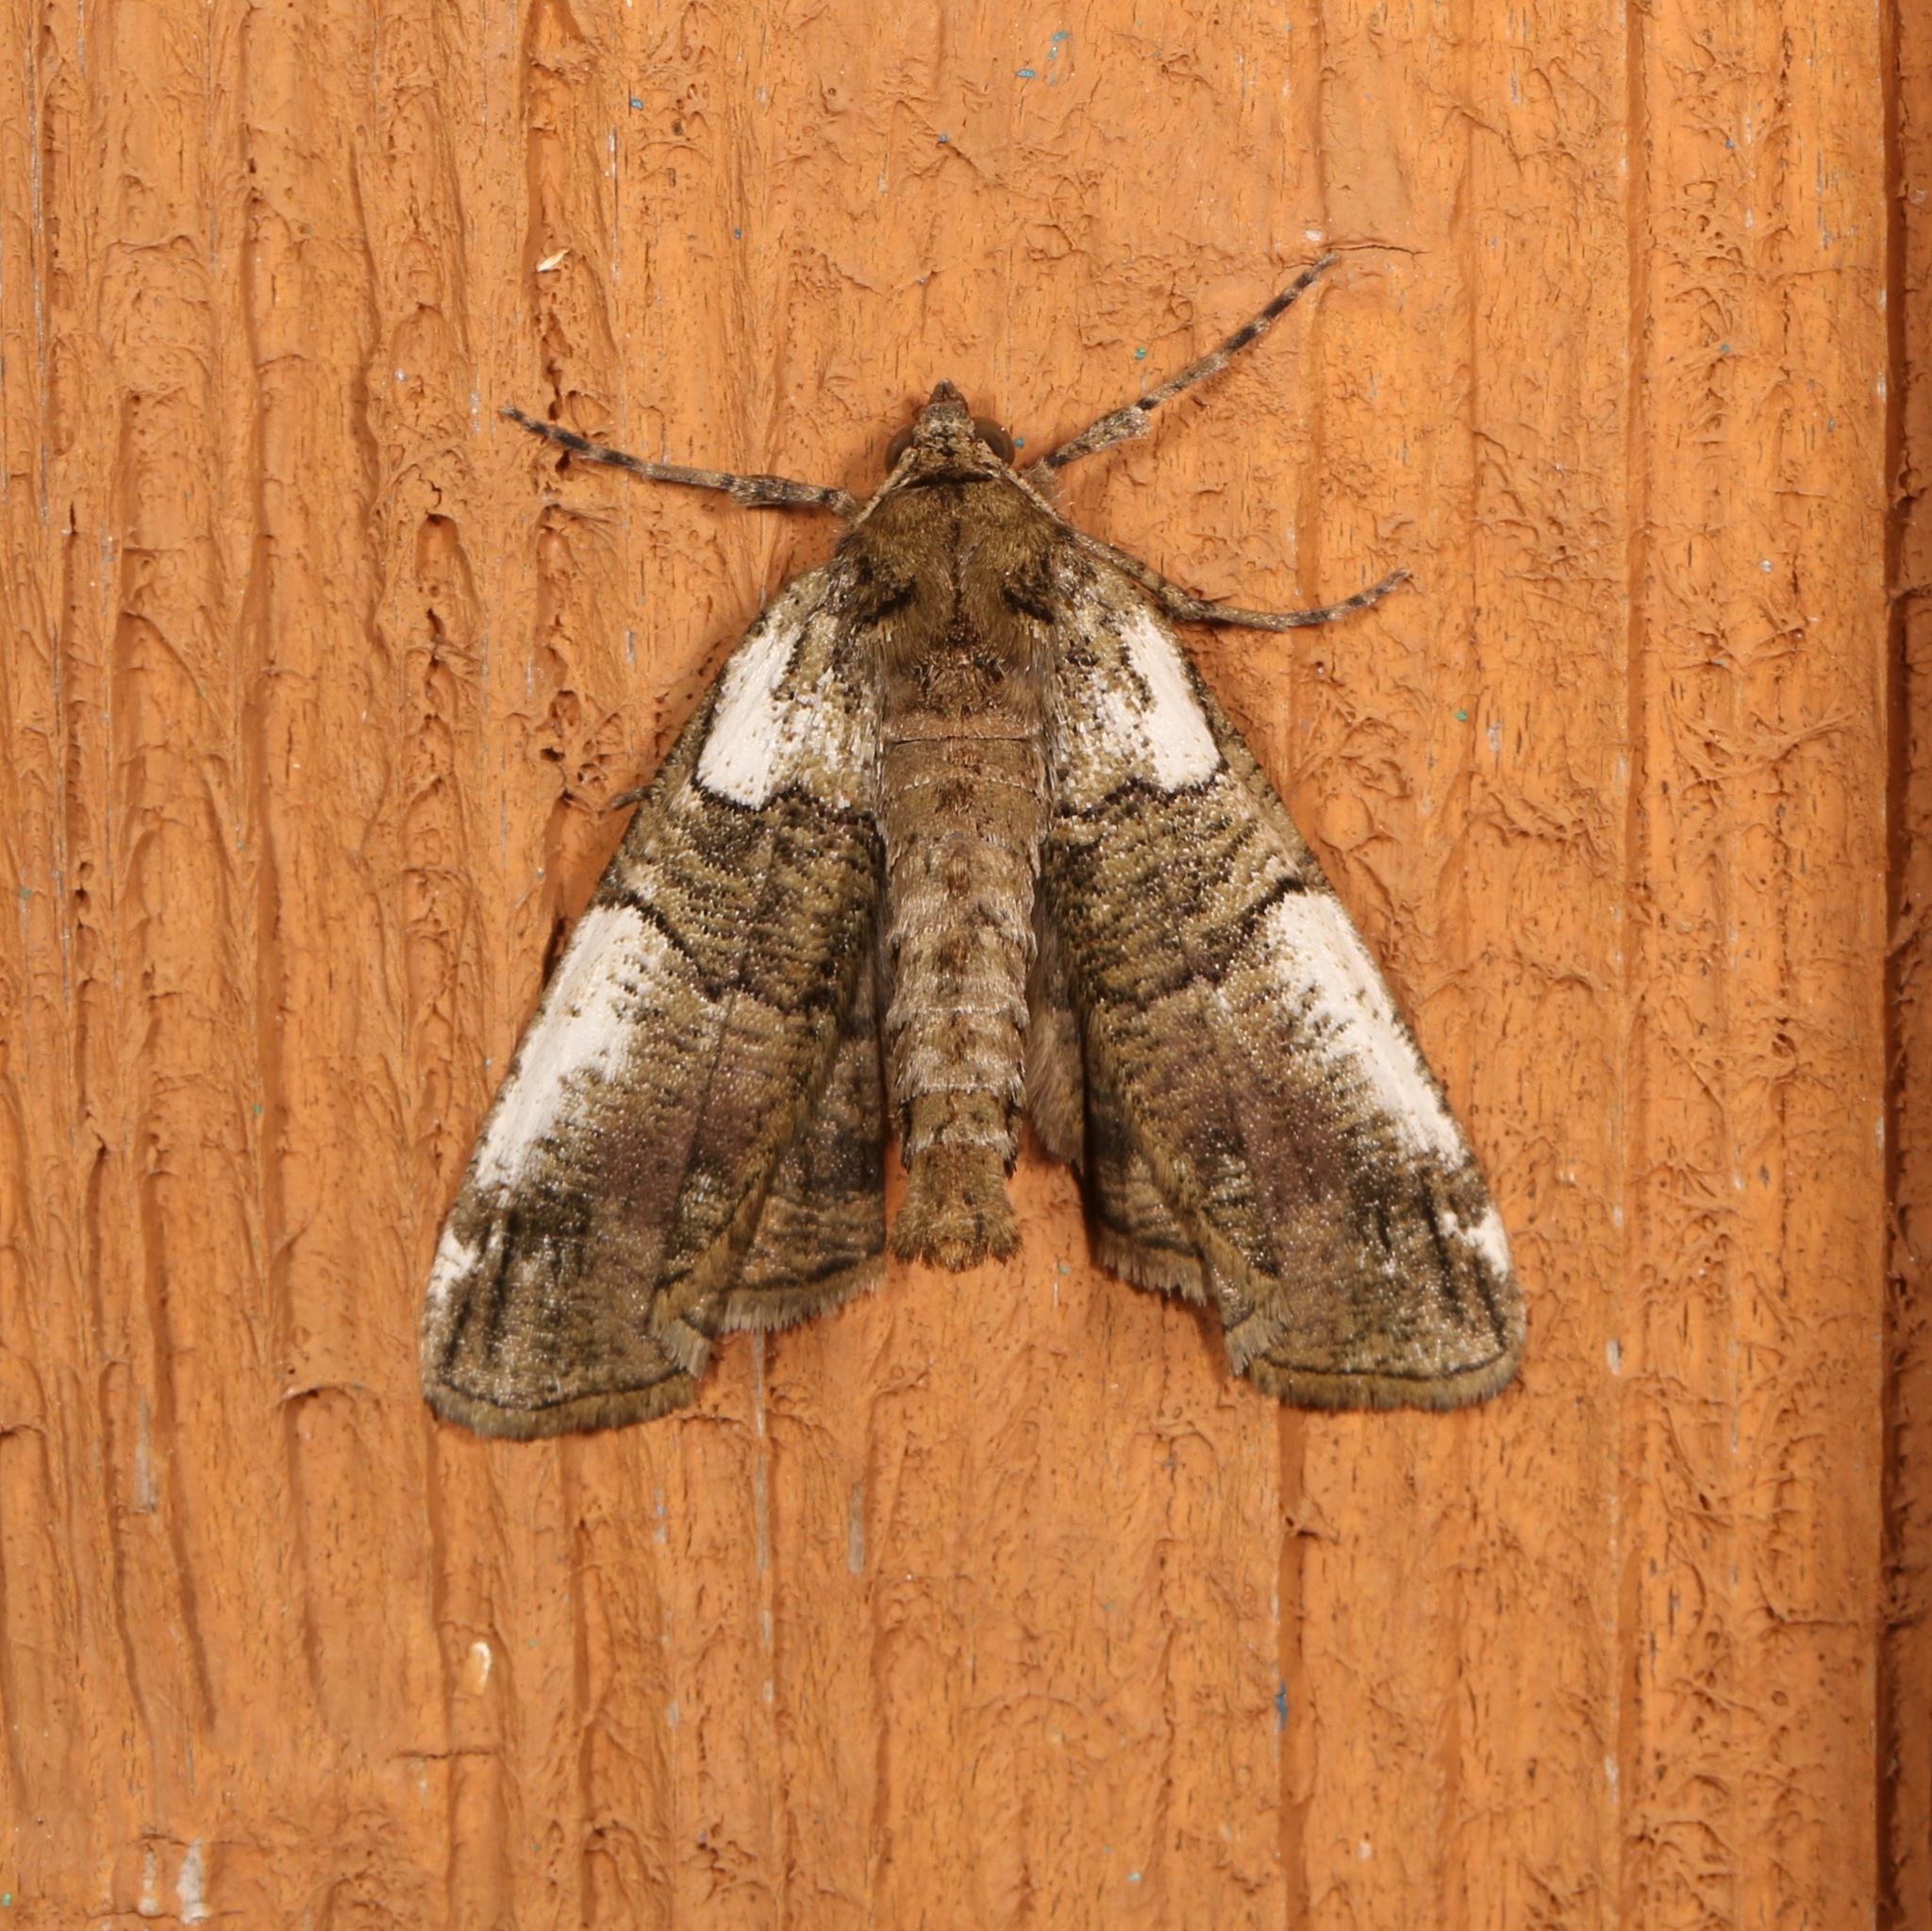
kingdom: Animalia
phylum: Arthropoda
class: Insecta
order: Lepidoptera
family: Geometridae
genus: Ceratonyx
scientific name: Ceratonyx satanaria
